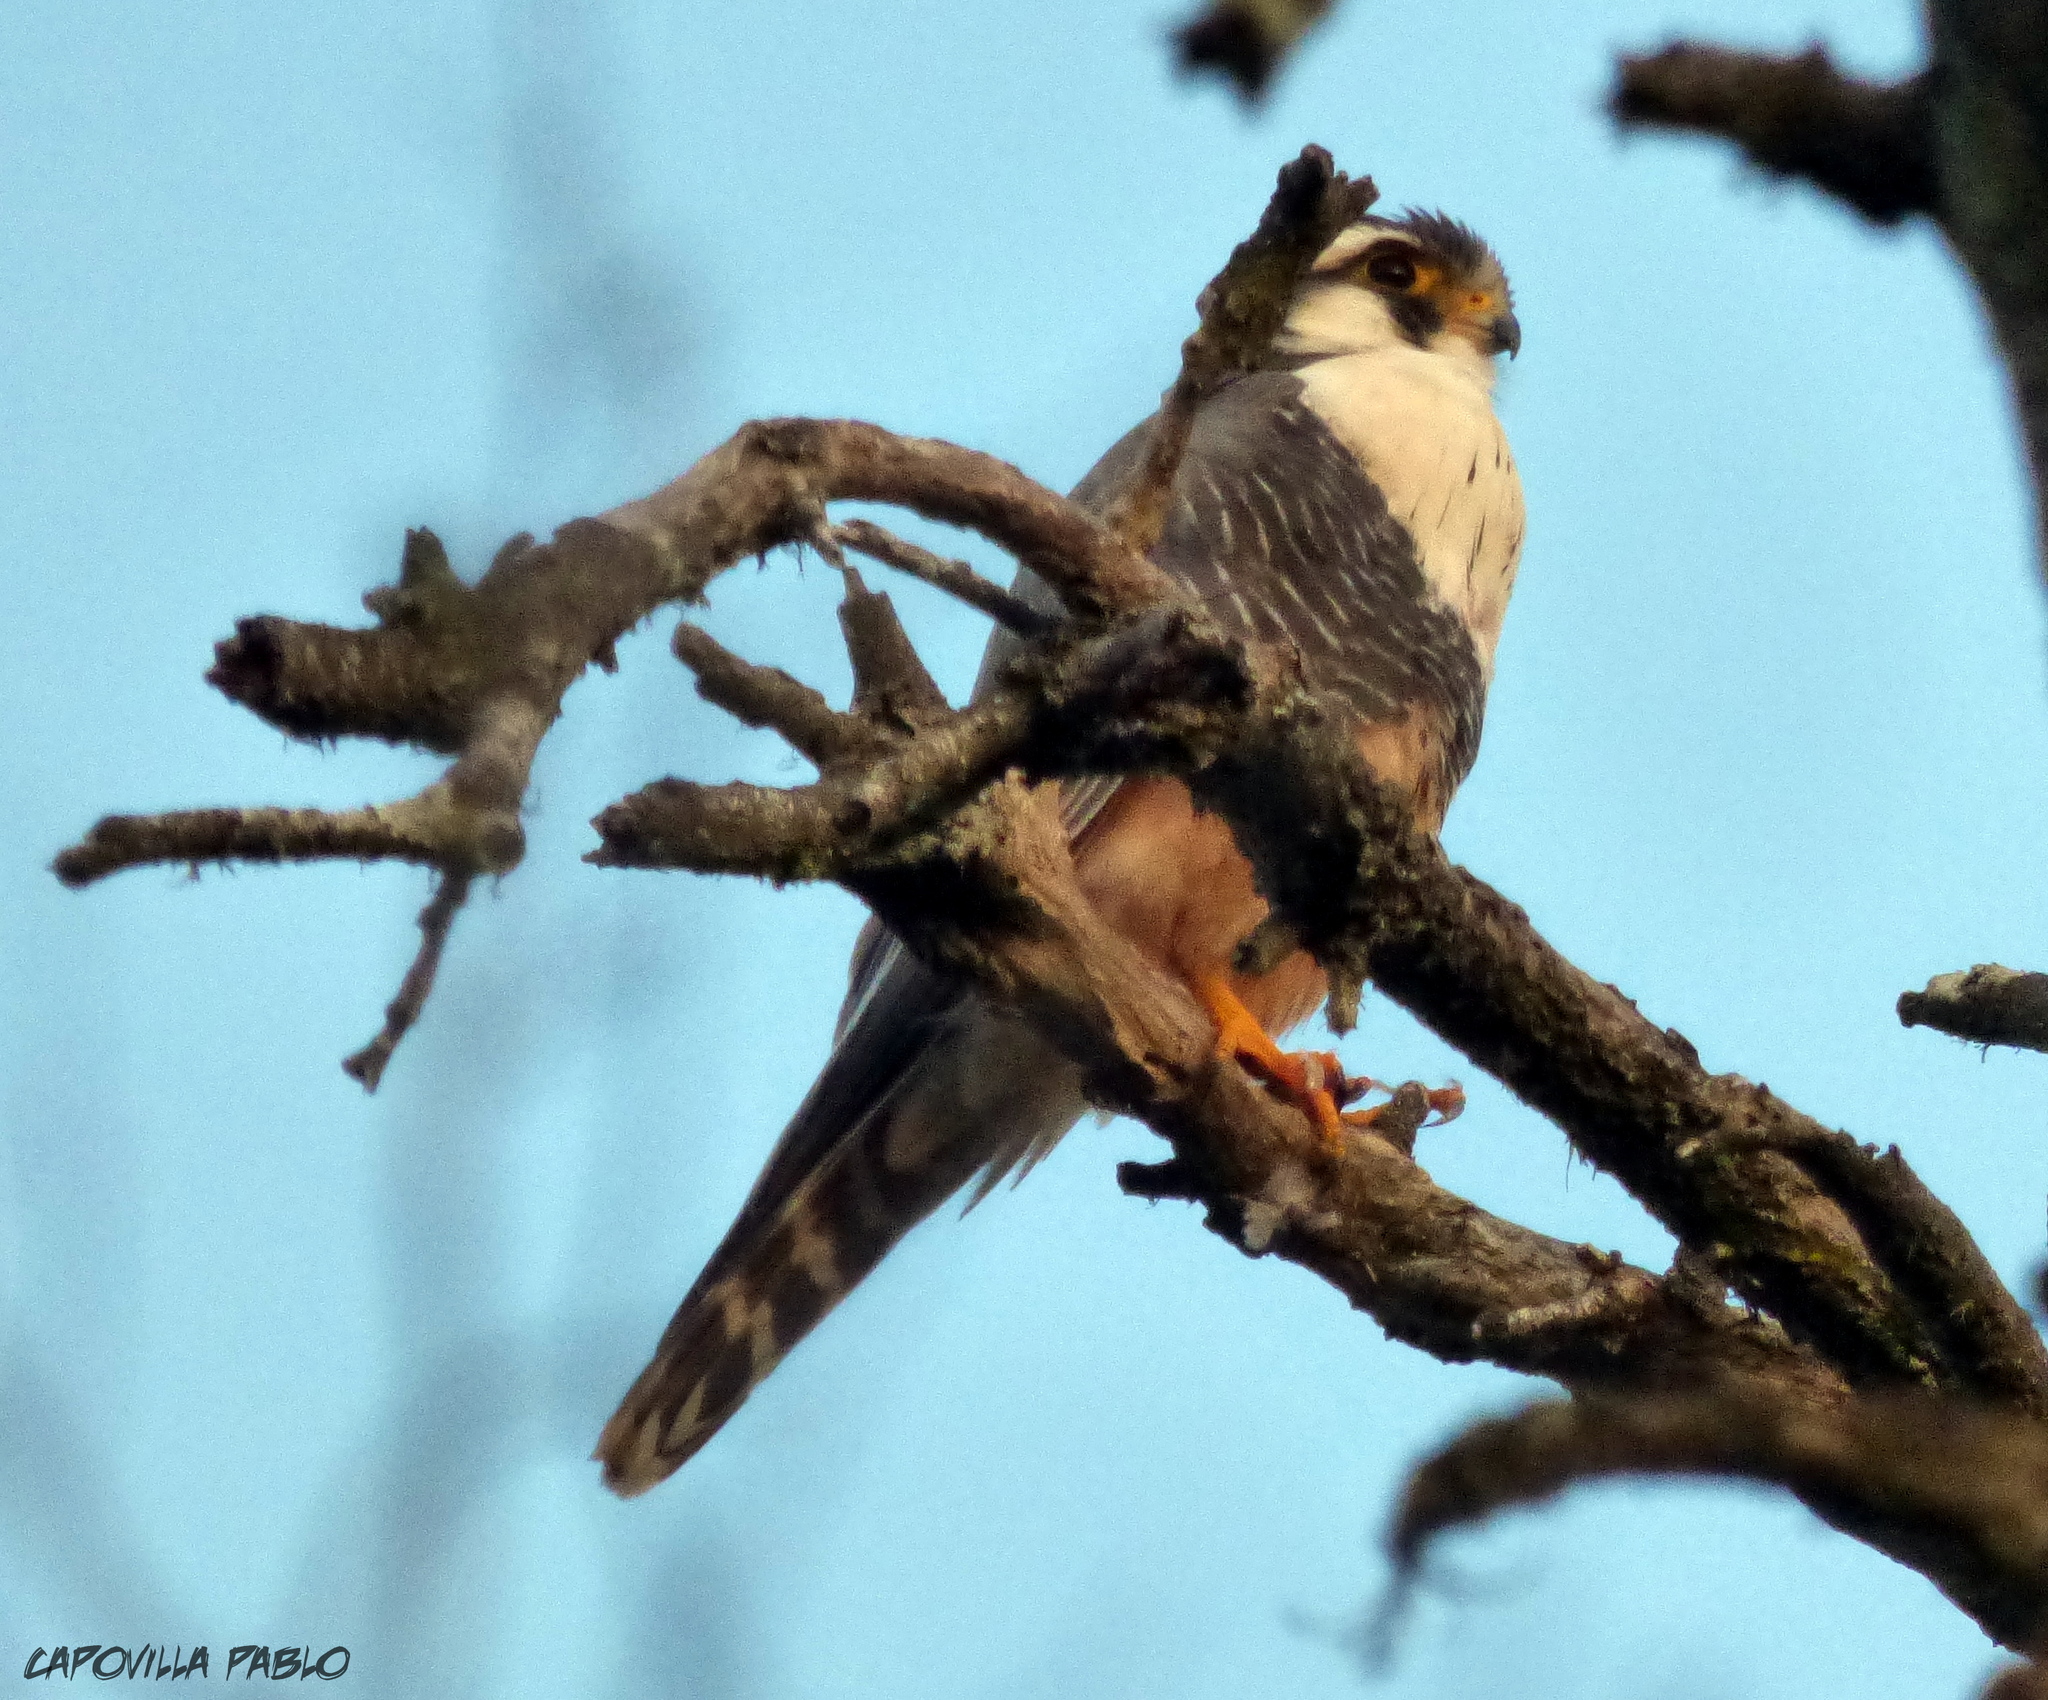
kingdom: Animalia
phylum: Chordata
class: Aves
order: Falconiformes
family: Falconidae
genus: Falco
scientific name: Falco femoralis
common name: Aplomado falcon
